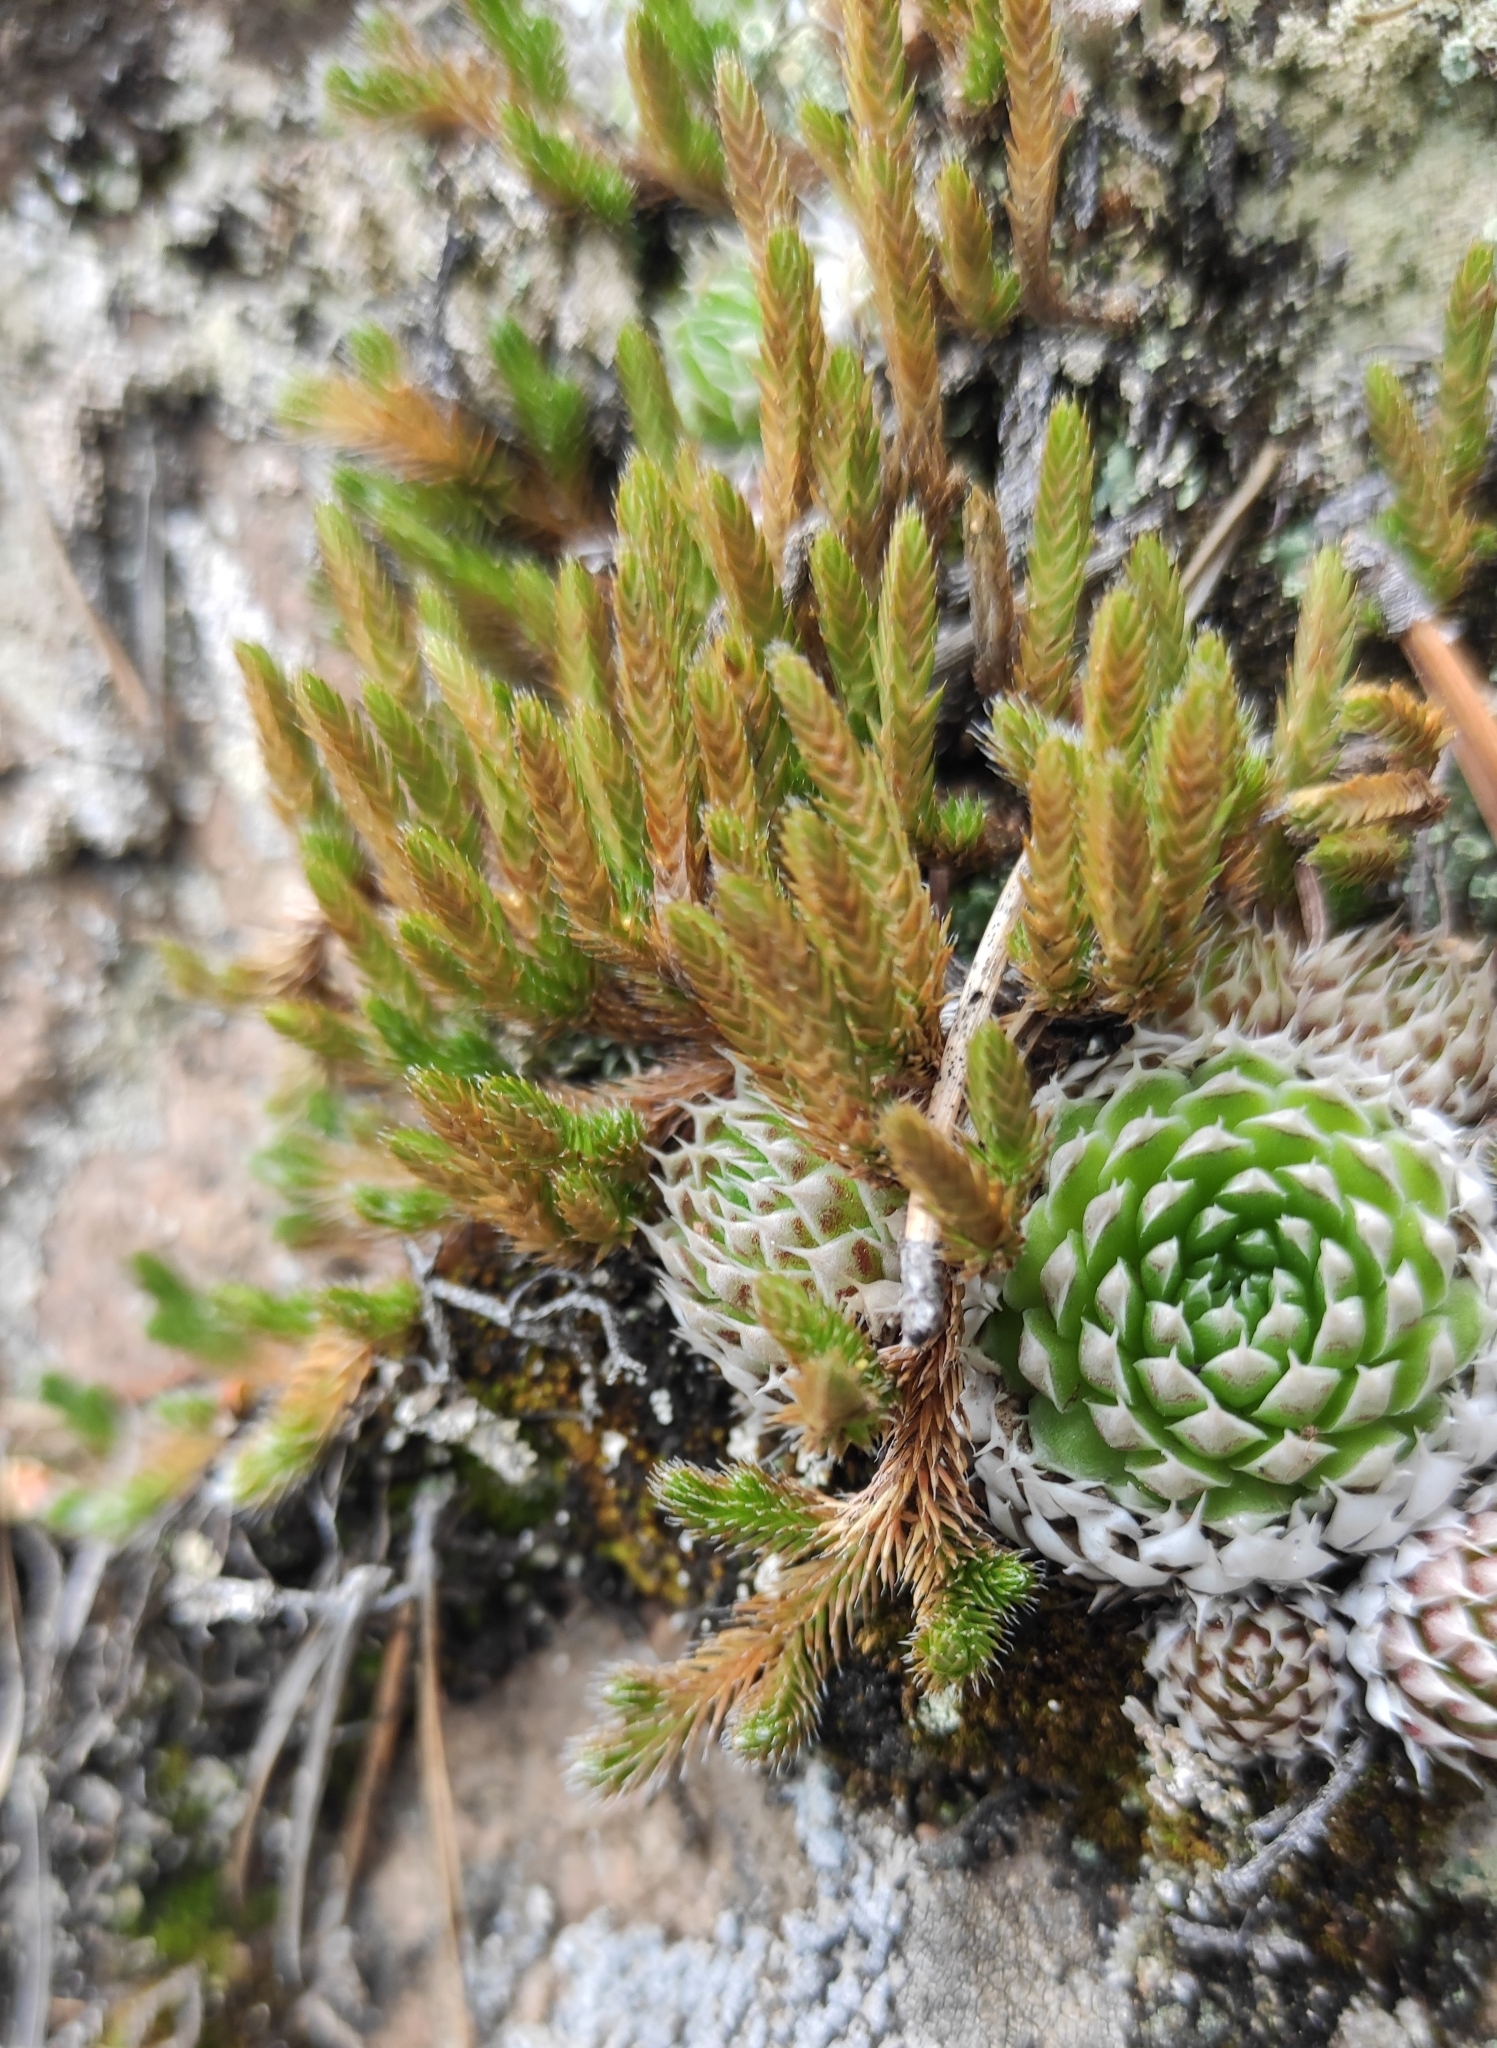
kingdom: Plantae
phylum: Tracheophyta
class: Lycopodiopsida
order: Selaginellales
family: Selaginellaceae
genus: Selaginella
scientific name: Selaginella rupestris
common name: Dwarf spikemoss
